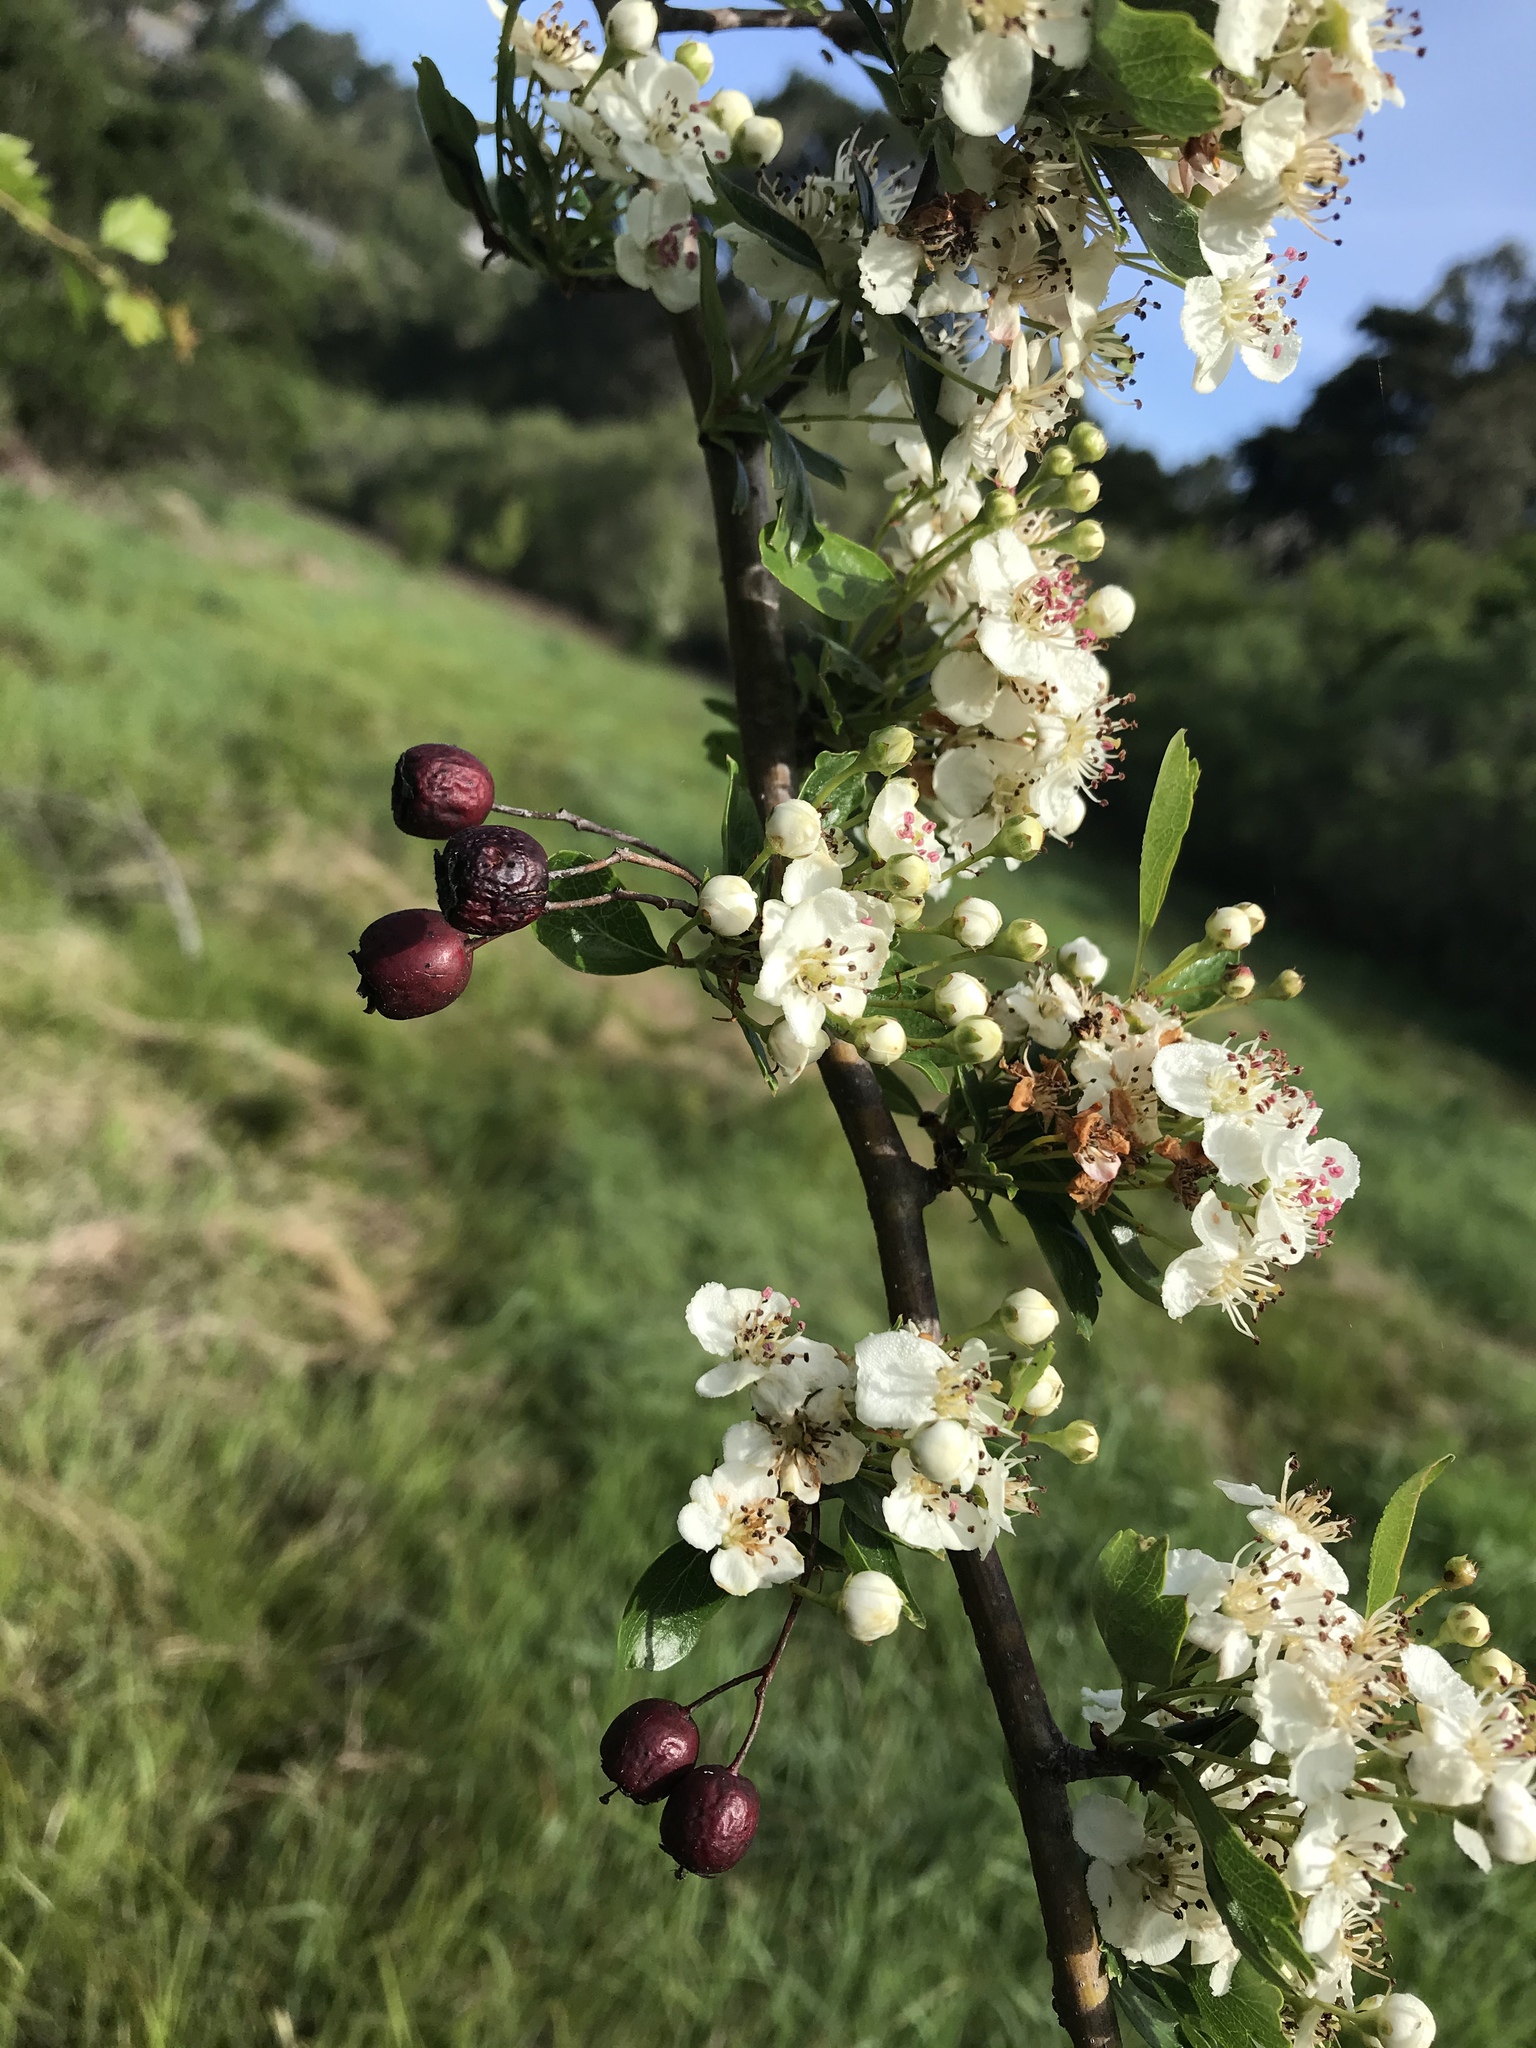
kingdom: Plantae
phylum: Tracheophyta
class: Magnoliopsida
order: Rosales
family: Rosaceae
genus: Crataegus
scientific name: Crataegus monogyna
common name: Hawthorn
